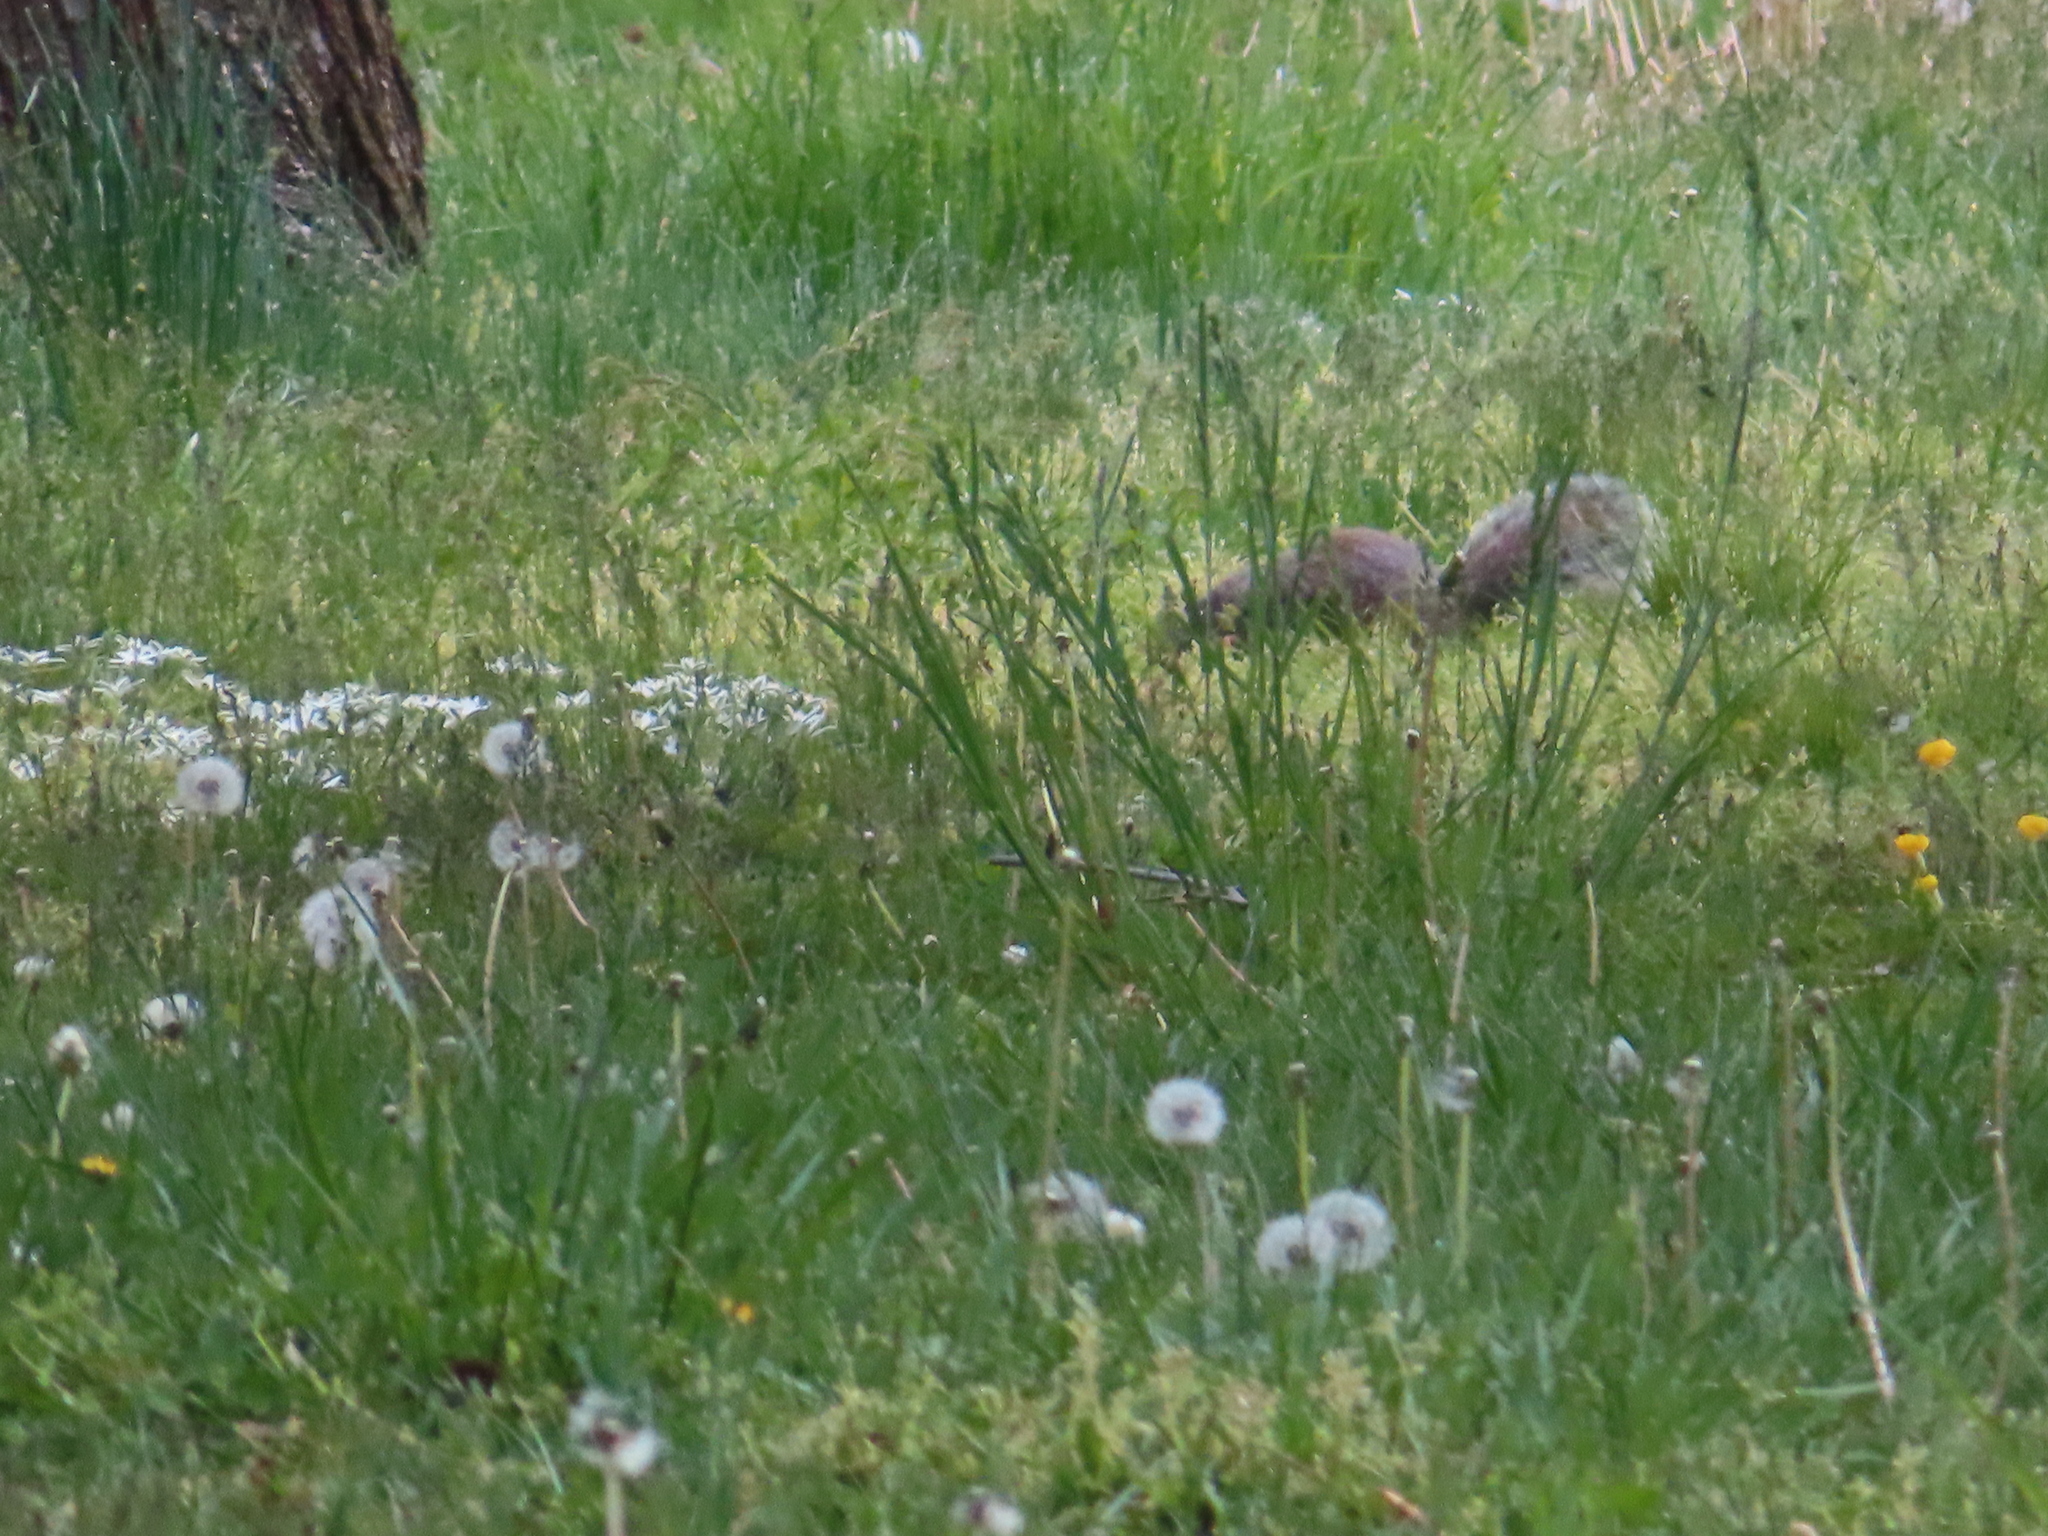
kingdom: Animalia
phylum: Chordata
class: Mammalia
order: Rodentia
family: Sciuridae
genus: Sciurus
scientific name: Sciurus carolinensis
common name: Eastern gray squirrel
